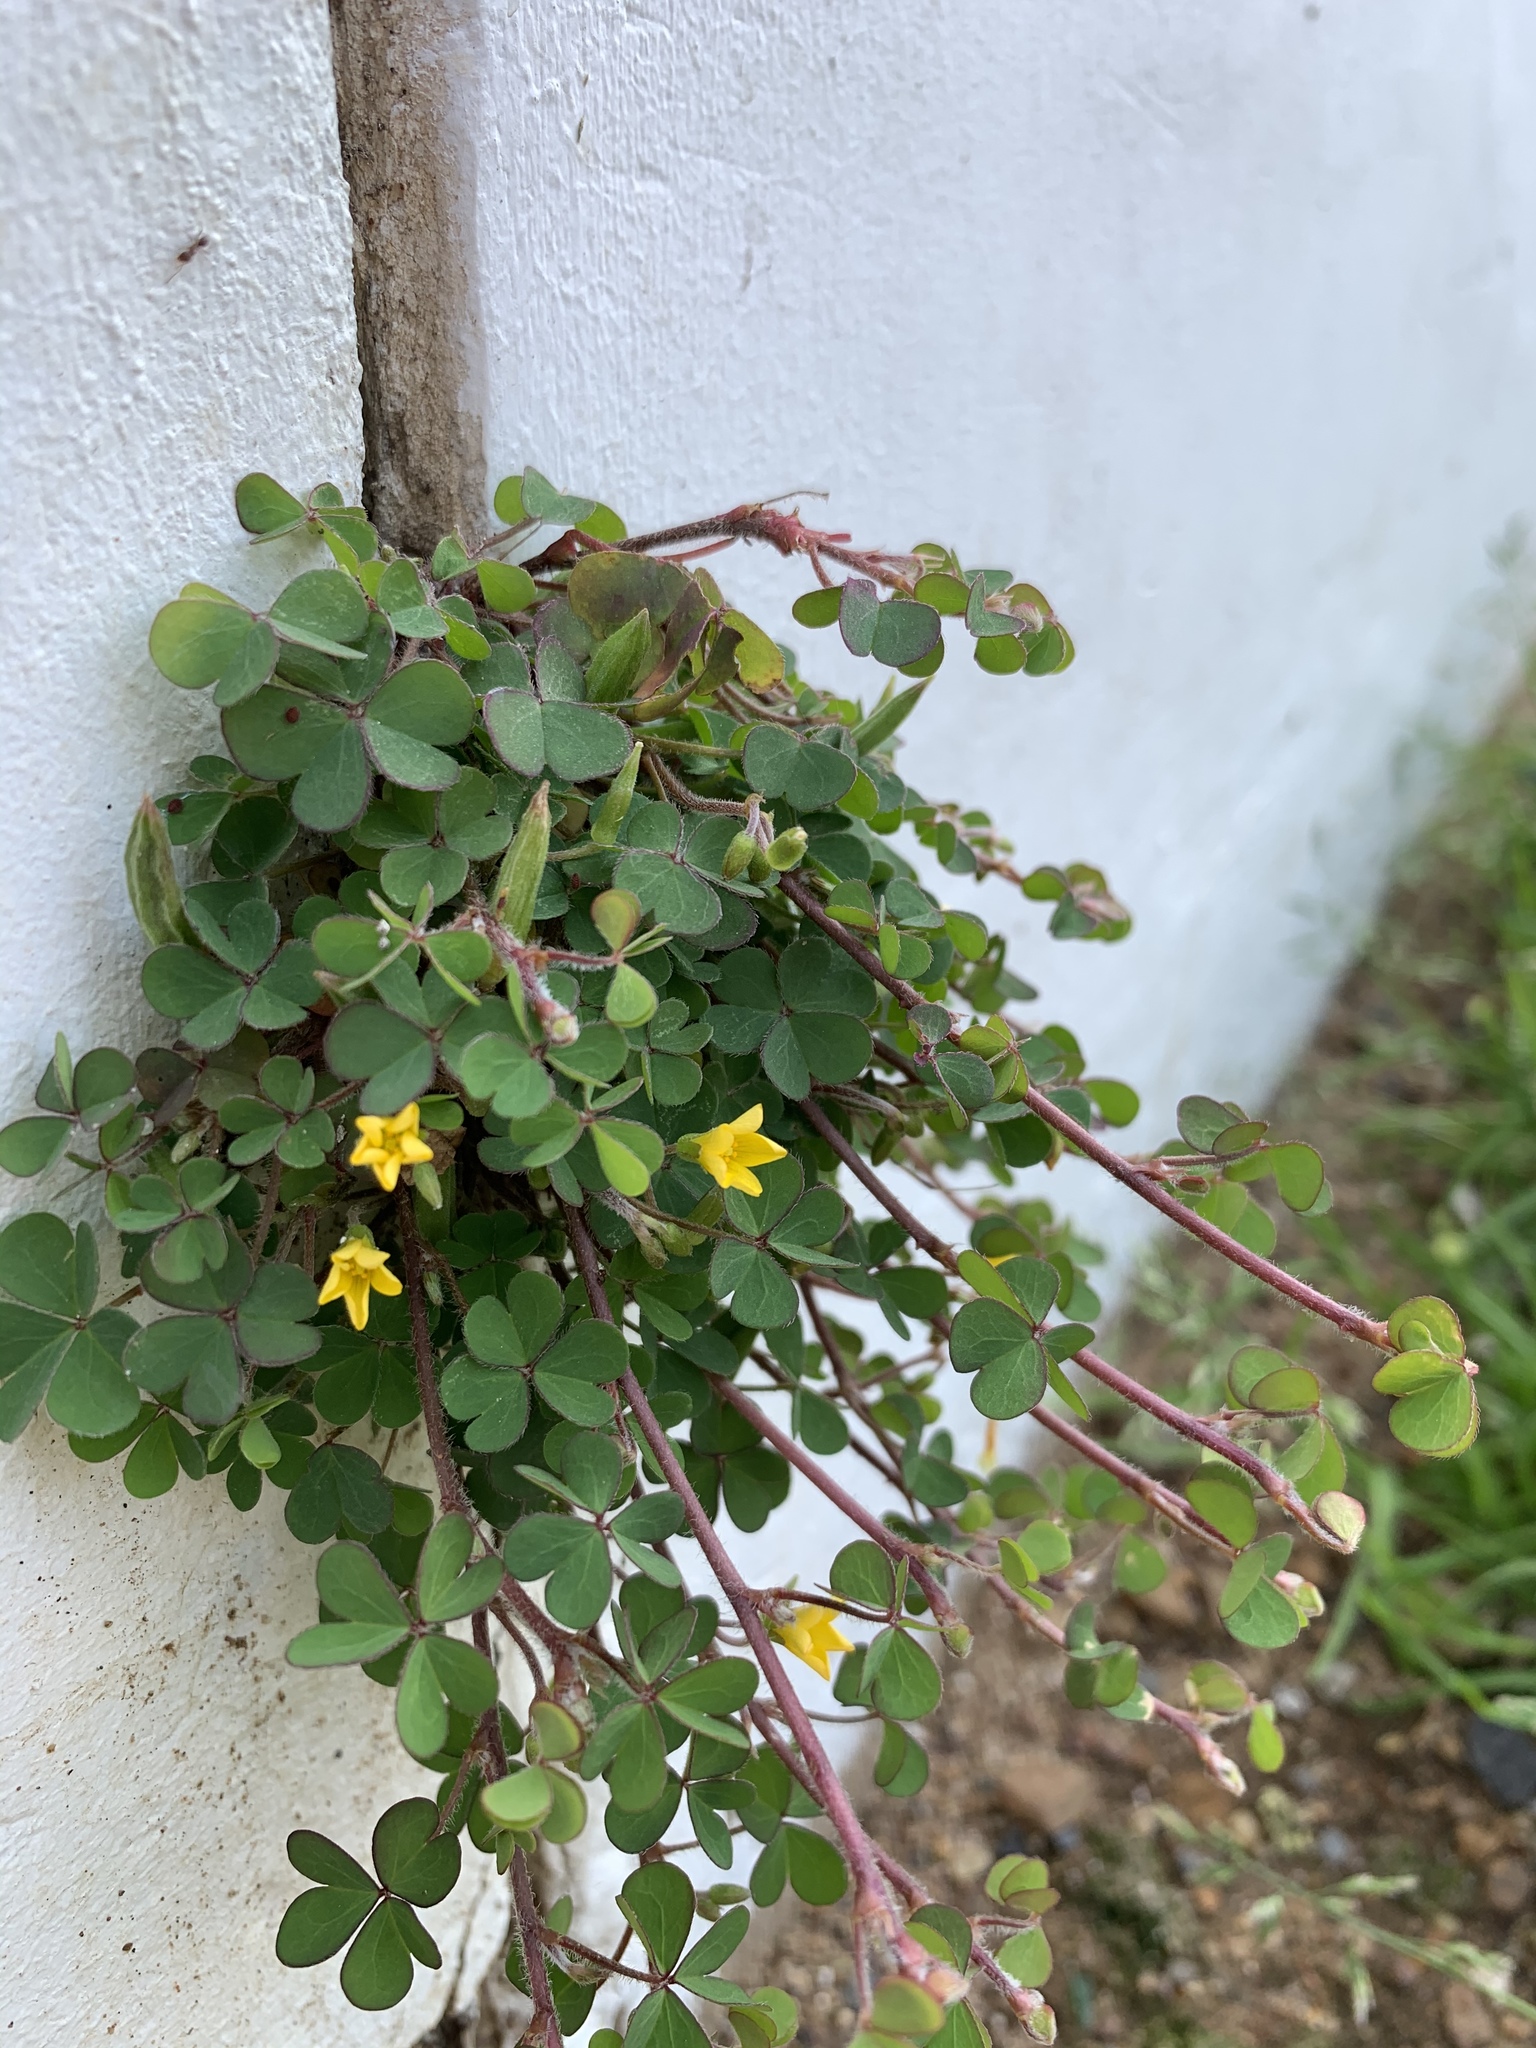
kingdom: Plantae
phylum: Tracheophyta
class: Magnoliopsida
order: Oxalidales
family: Oxalidaceae
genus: Oxalis
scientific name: Oxalis corniculata
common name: Procumbent yellow-sorrel
